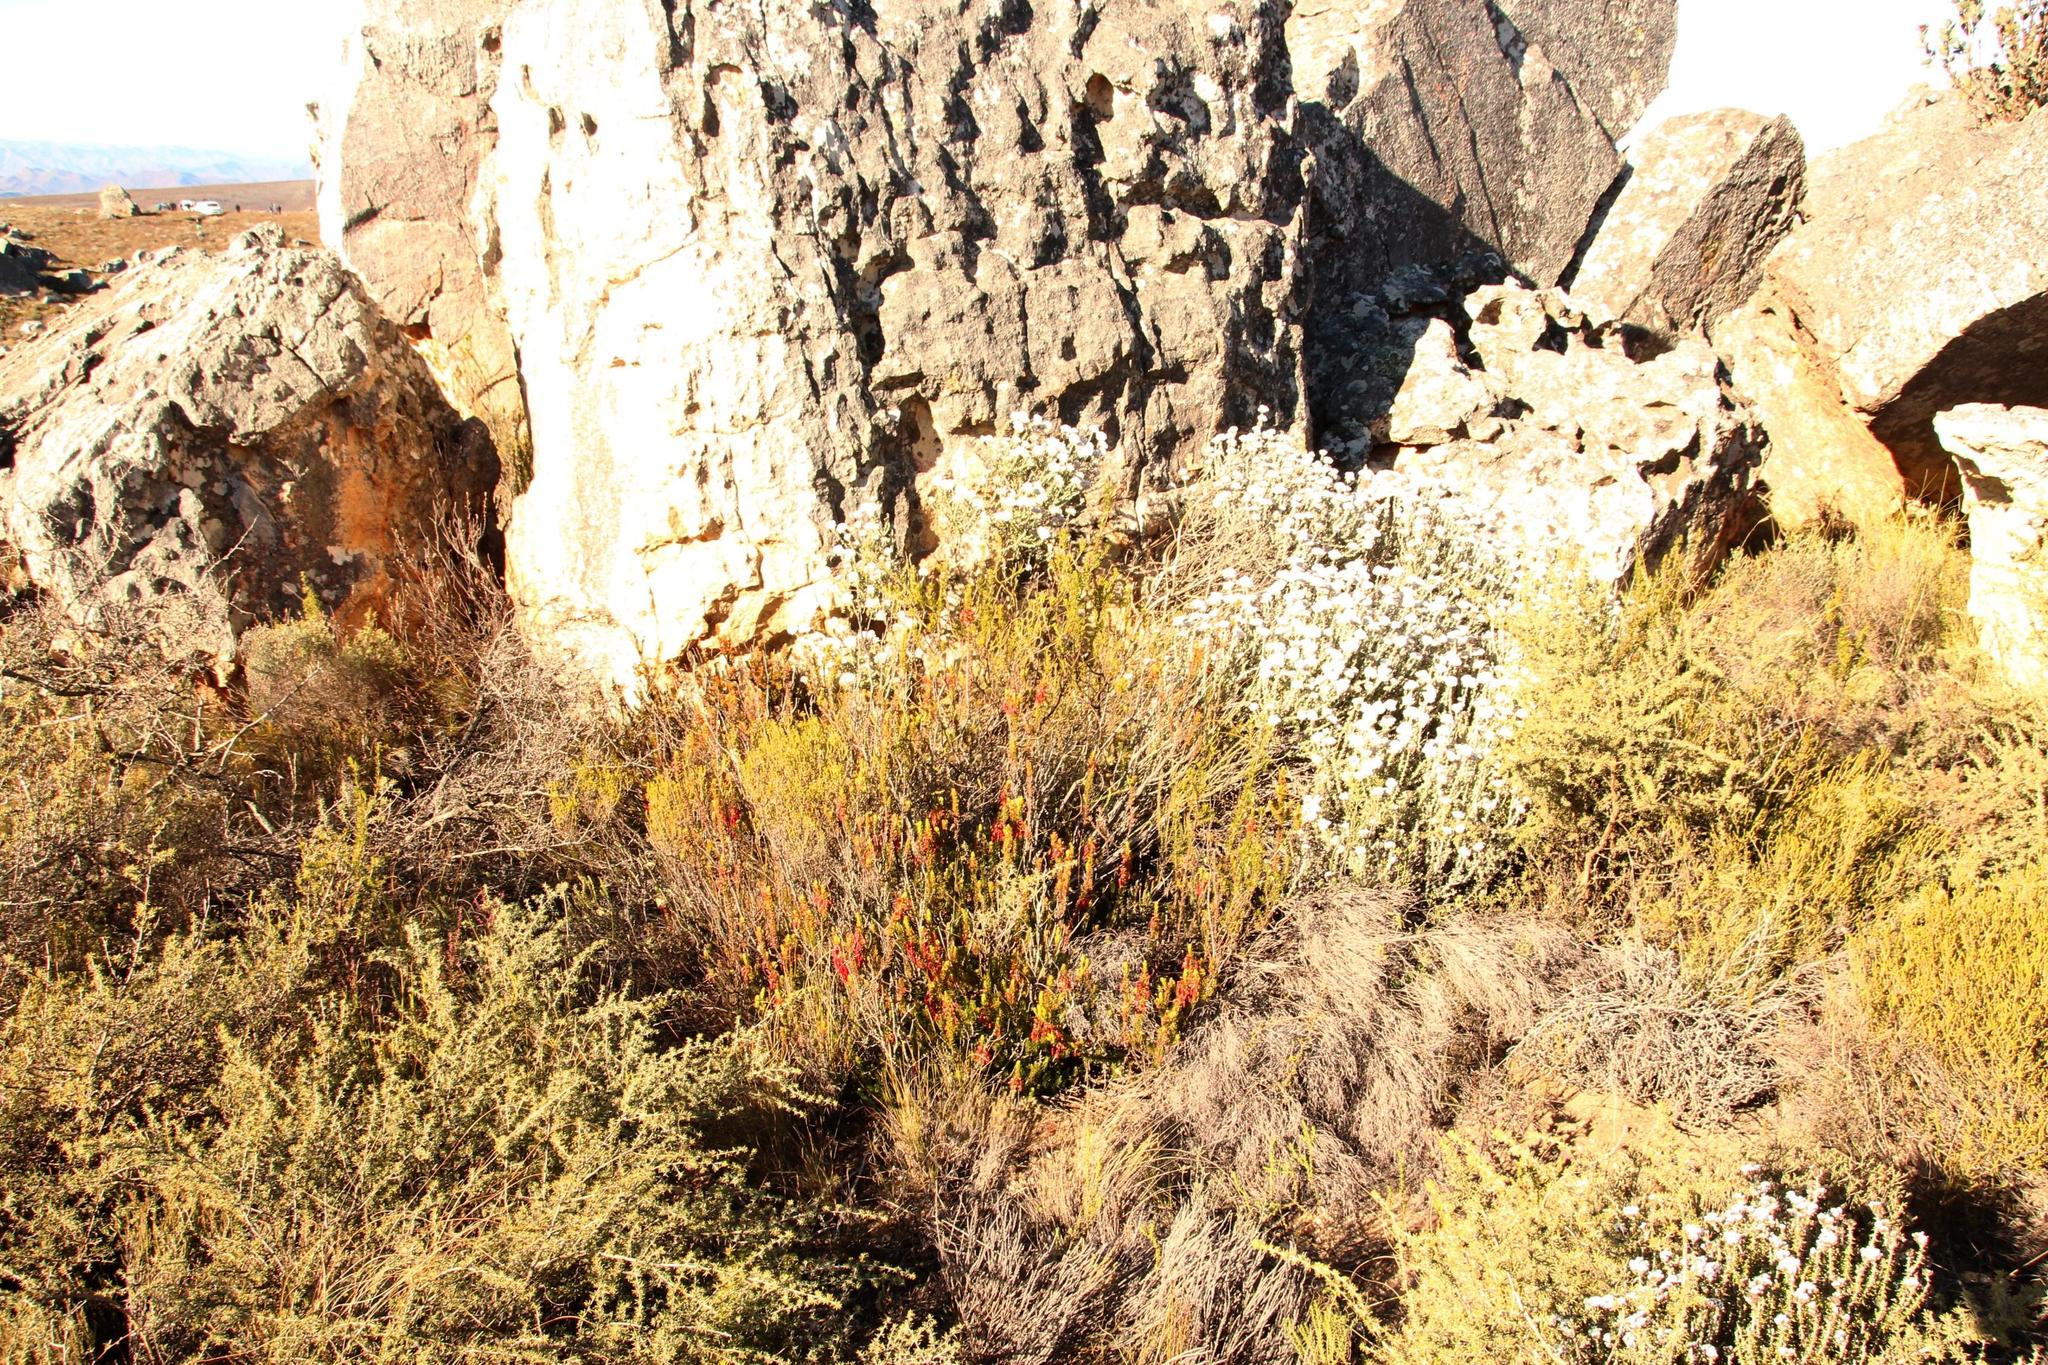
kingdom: Plantae
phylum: Tracheophyta
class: Magnoliopsida
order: Ericales
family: Ericaceae
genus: Erica
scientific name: Erica plukenetii
